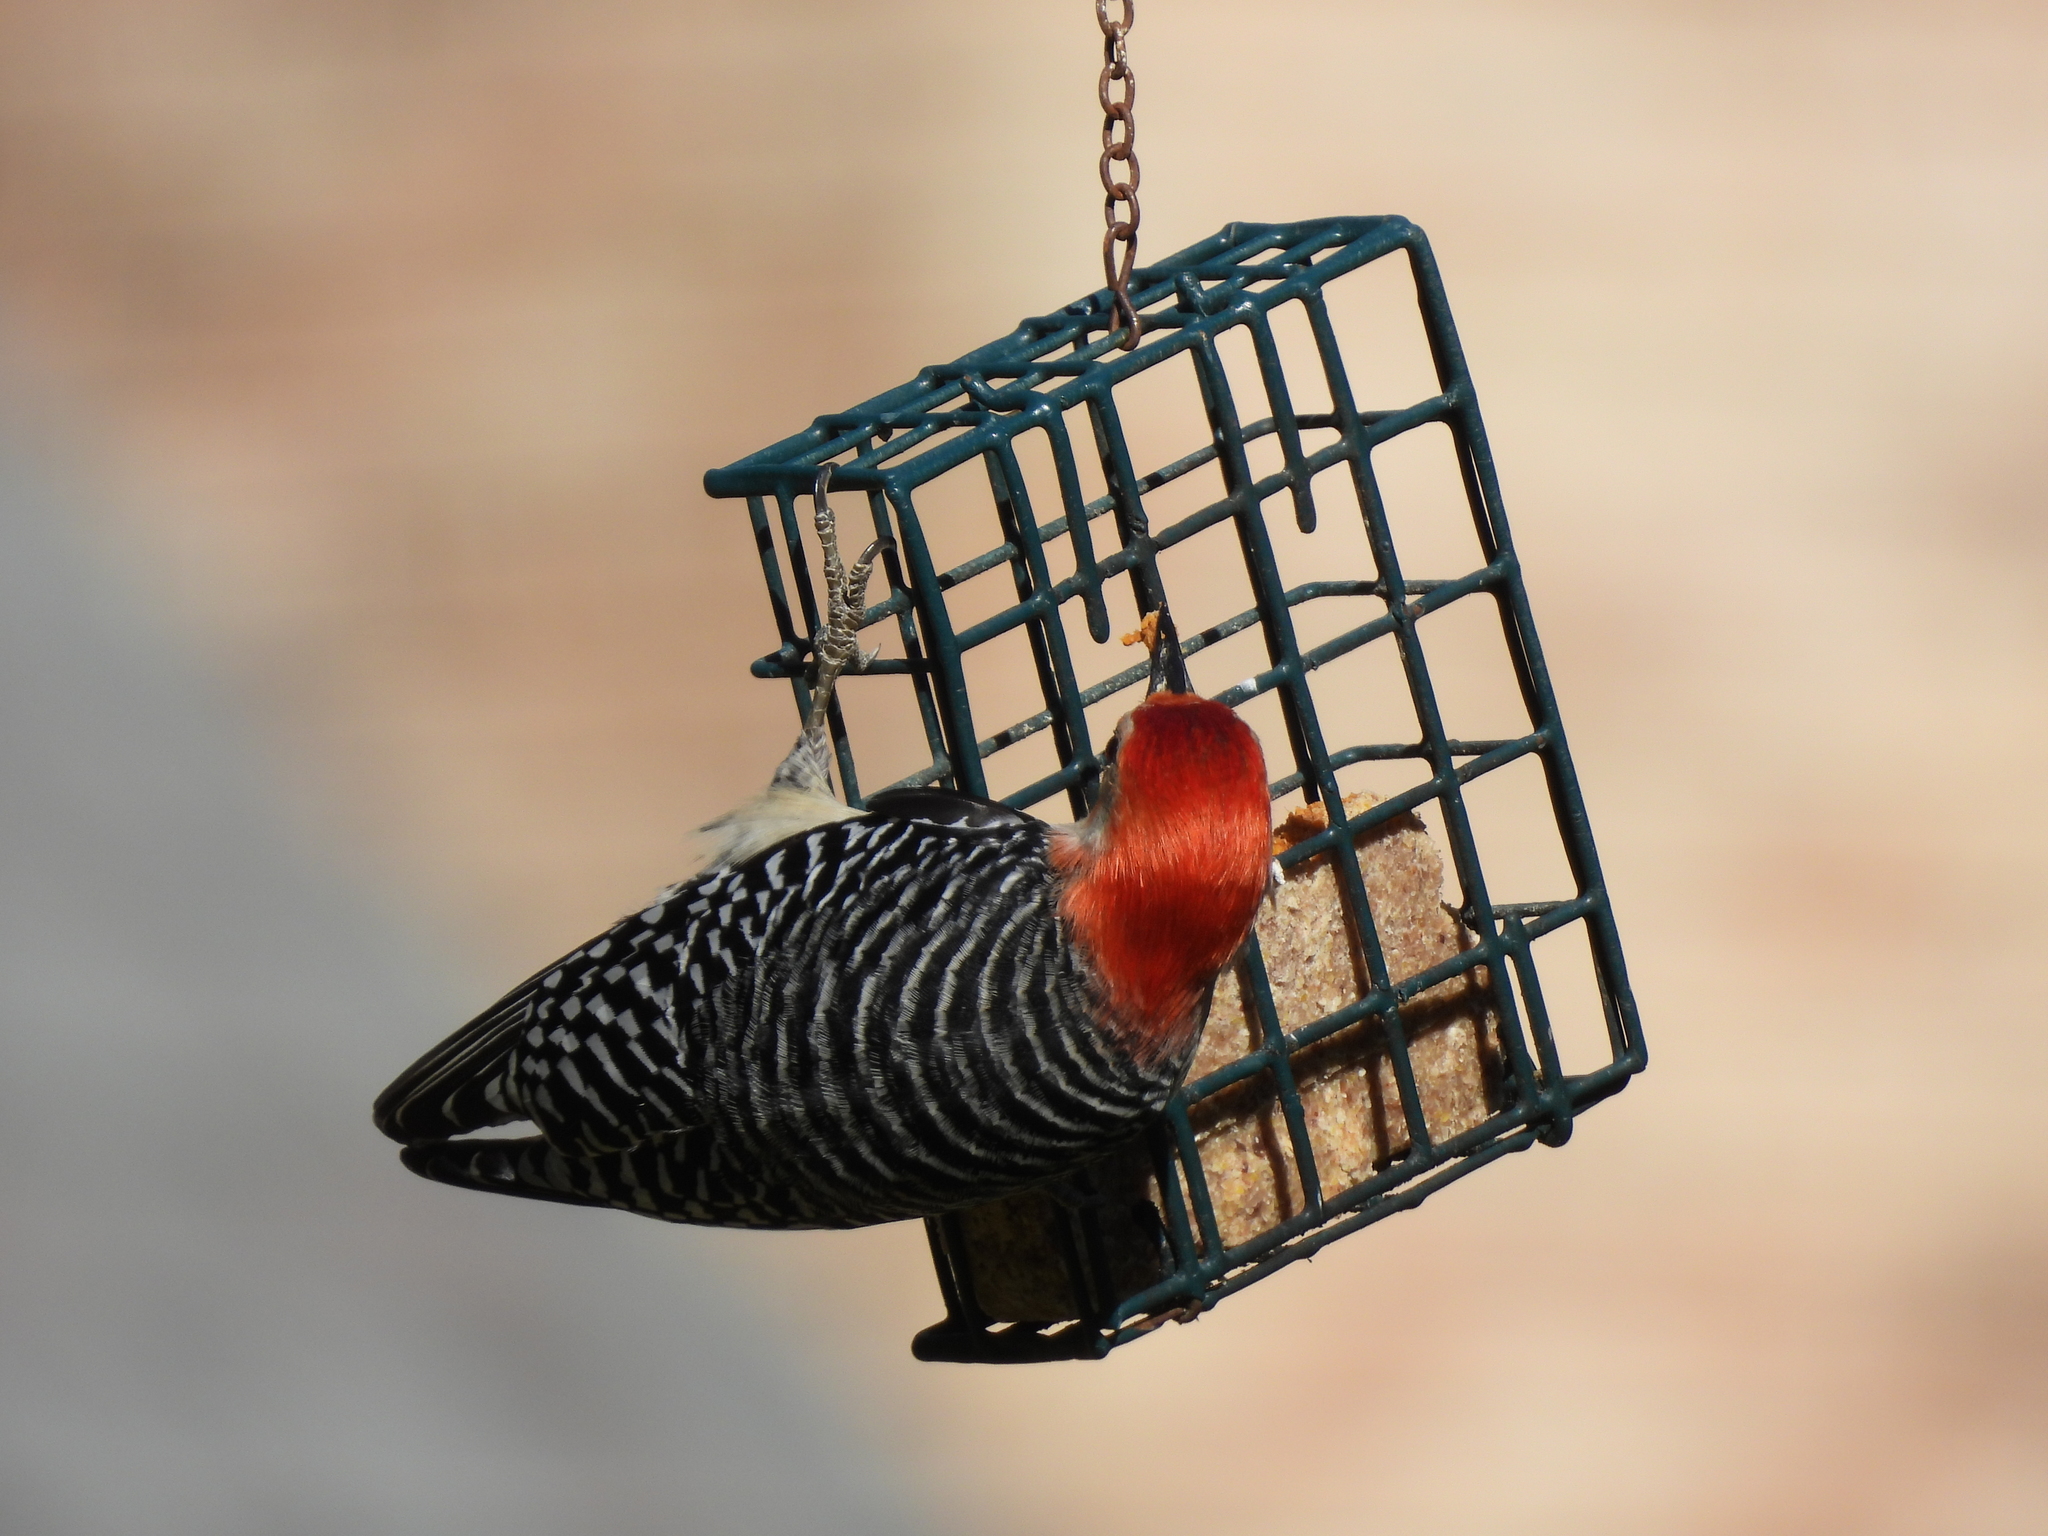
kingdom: Animalia
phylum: Chordata
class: Aves
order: Piciformes
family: Picidae
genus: Melanerpes
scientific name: Melanerpes carolinus
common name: Red-bellied woodpecker
